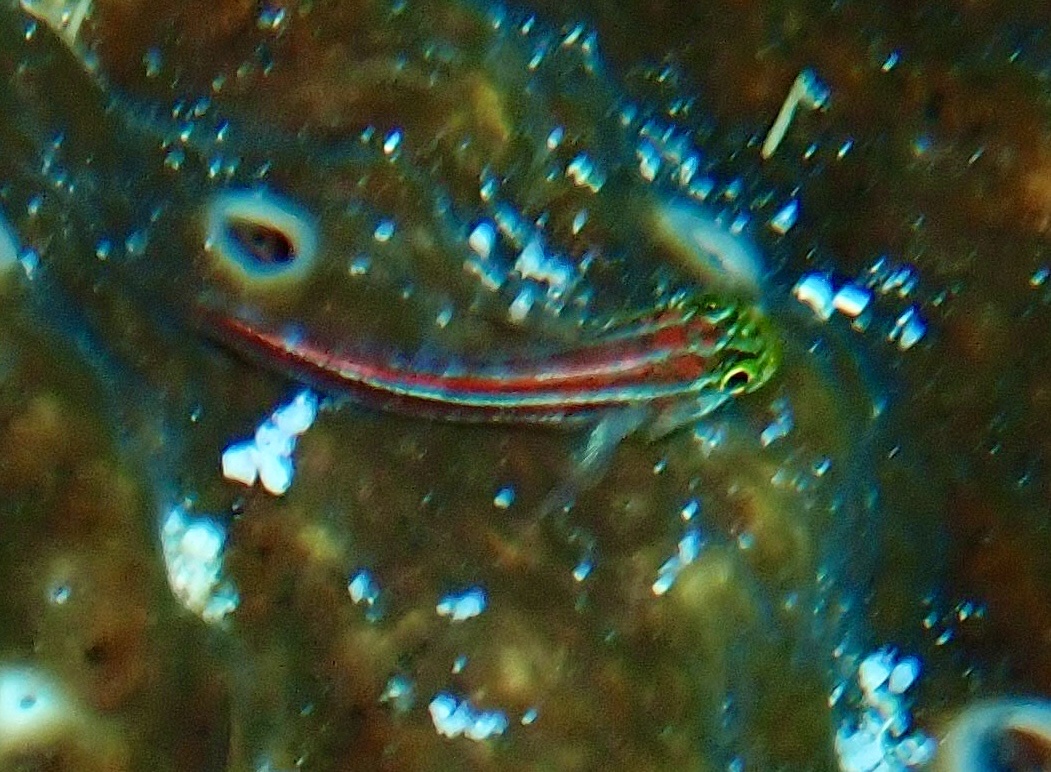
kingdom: Animalia
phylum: Chordata
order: Perciformes
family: Tripterygiidae
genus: Helcogramma
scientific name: Helcogramma striata
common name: Striped threefin
